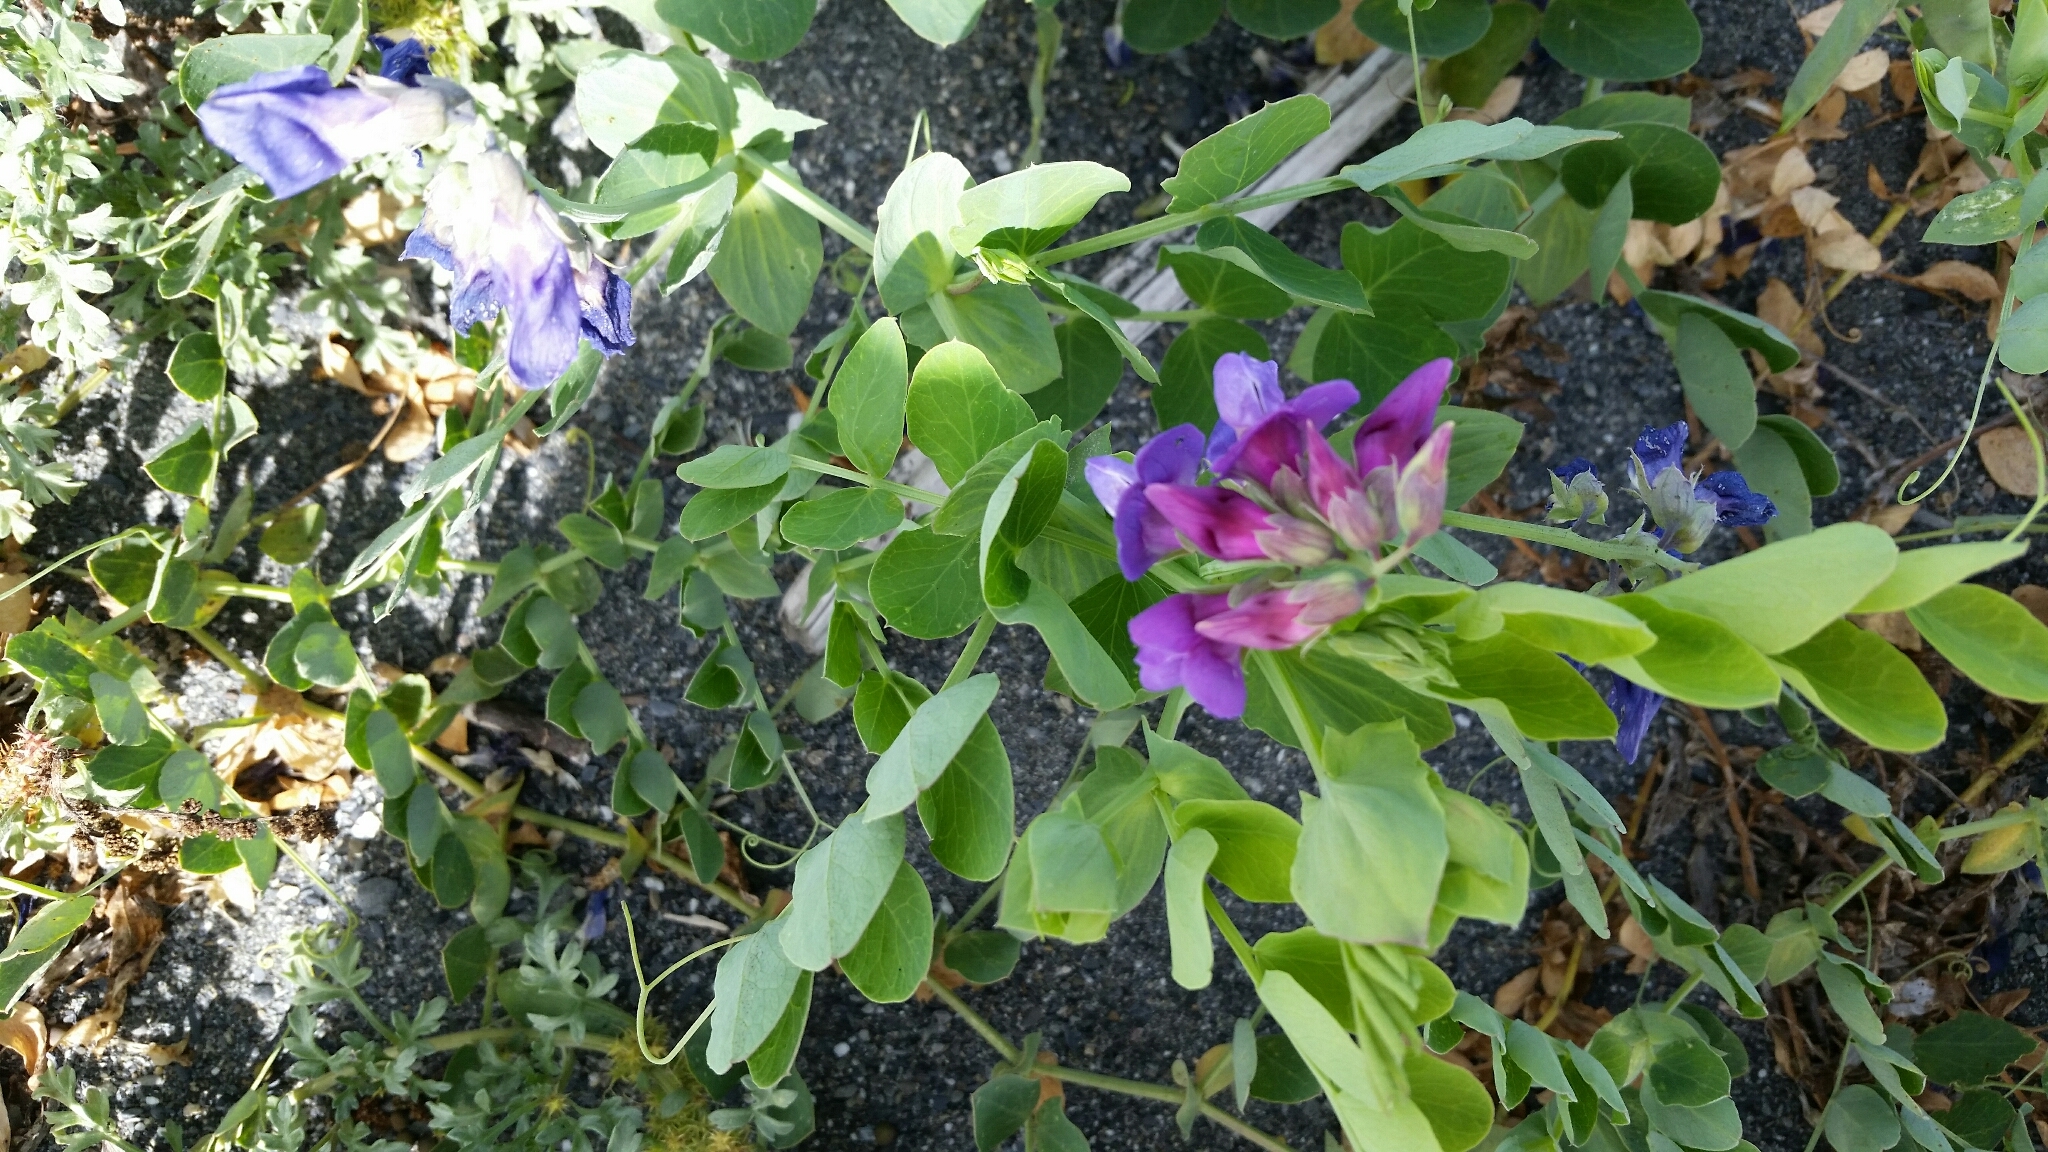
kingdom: Plantae
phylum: Tracheophyta
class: Magnoliopsida
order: Fabales
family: Fabaceae
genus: Lathyrus
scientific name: Lathyrus japonicus
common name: Sea pea
